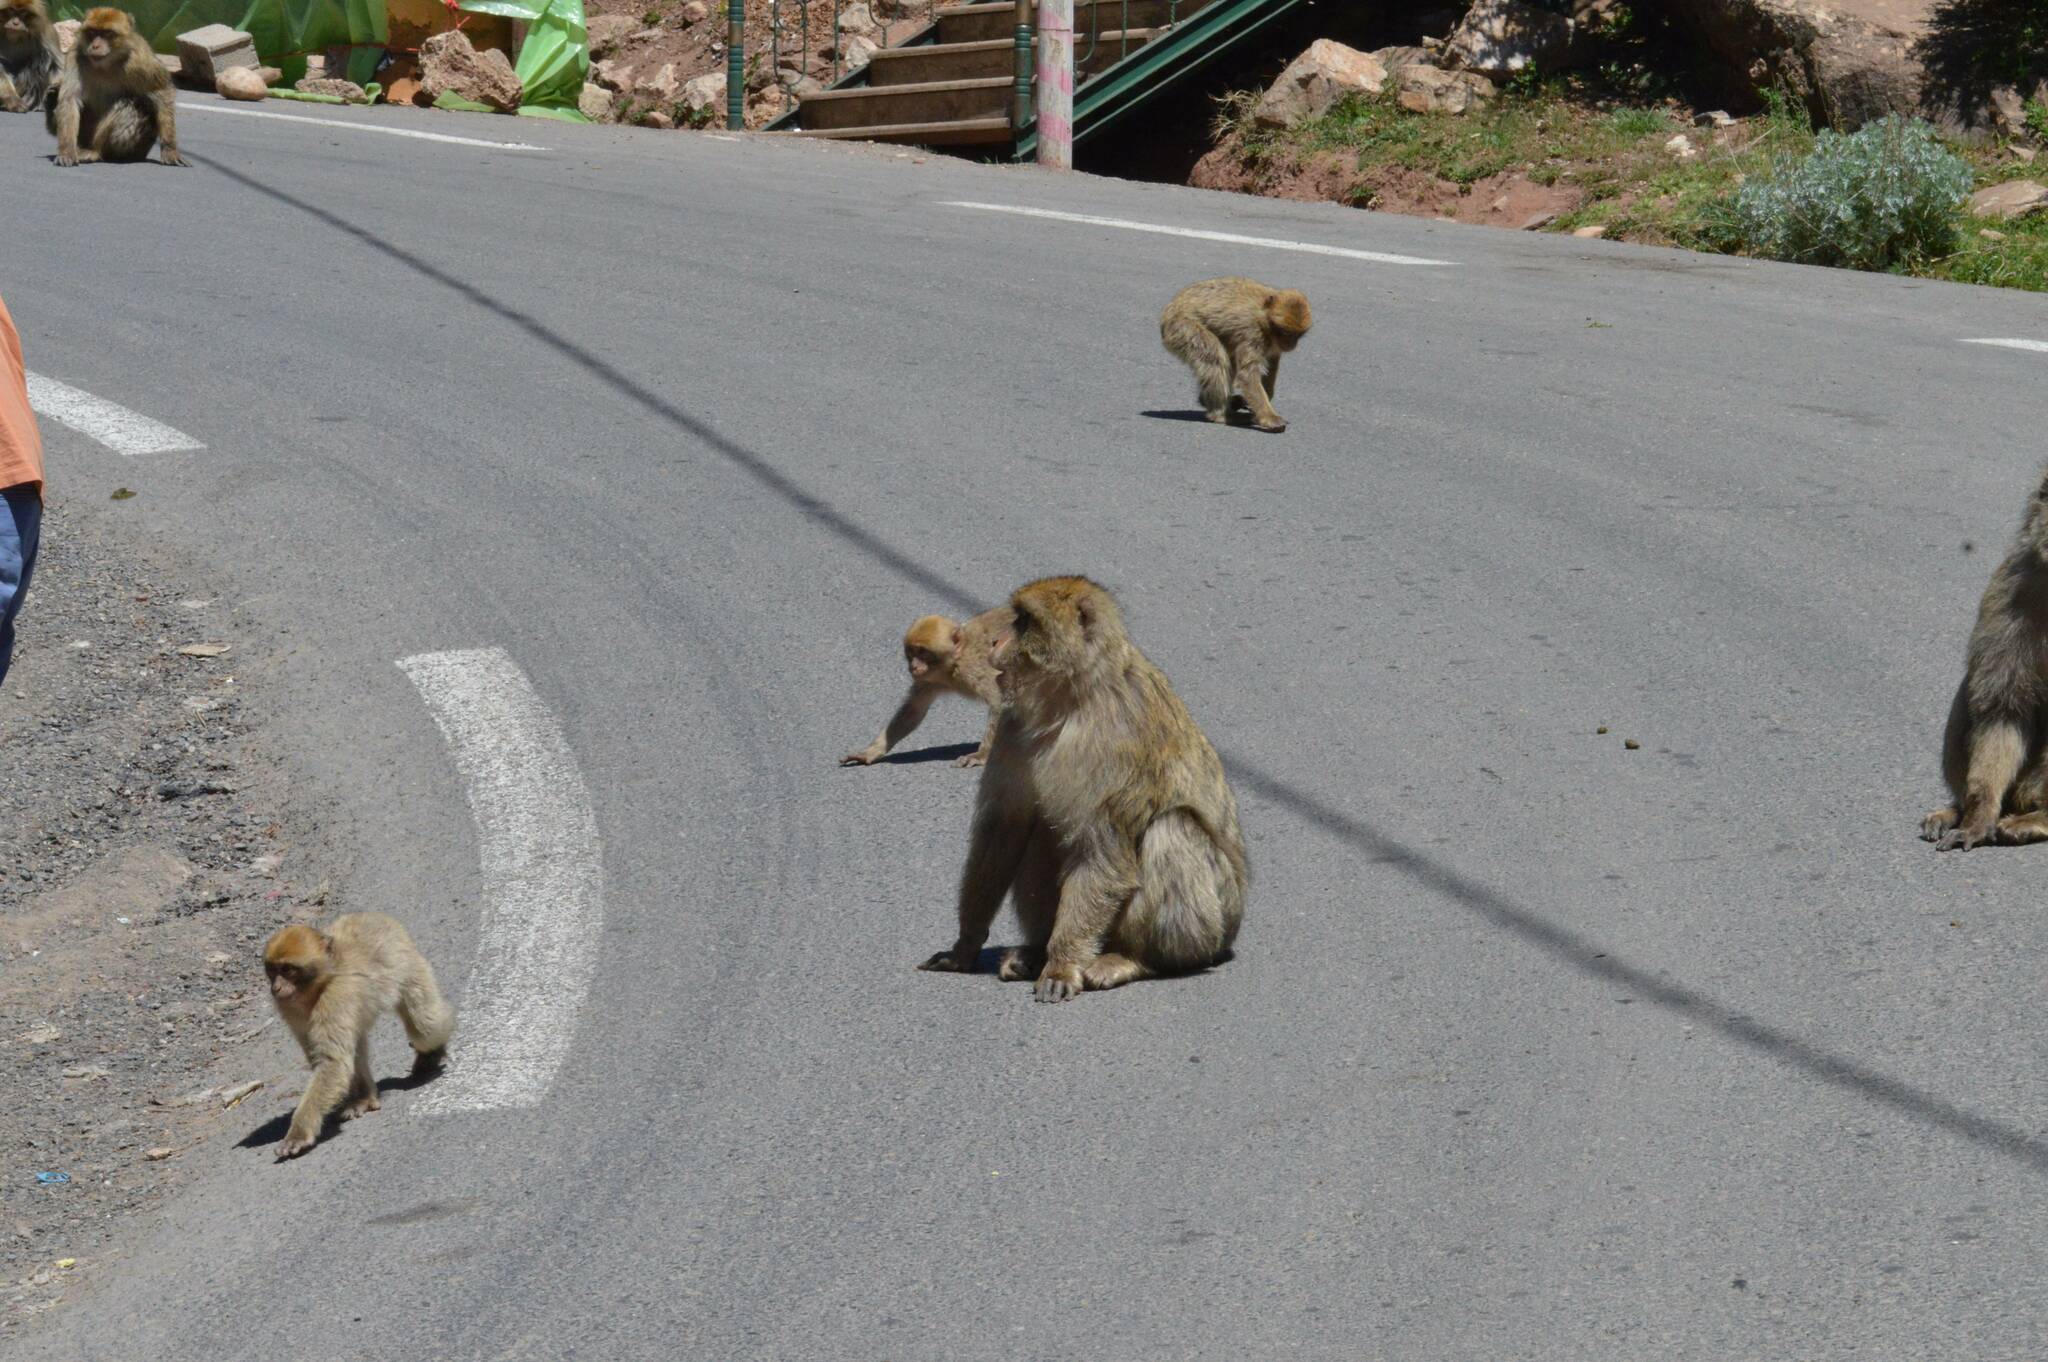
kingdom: Animalia
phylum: Chordata
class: Mammalia
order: Primates
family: Cercopithecidae
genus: Macaca
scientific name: Macaca sylvanus
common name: Barbary macaque
